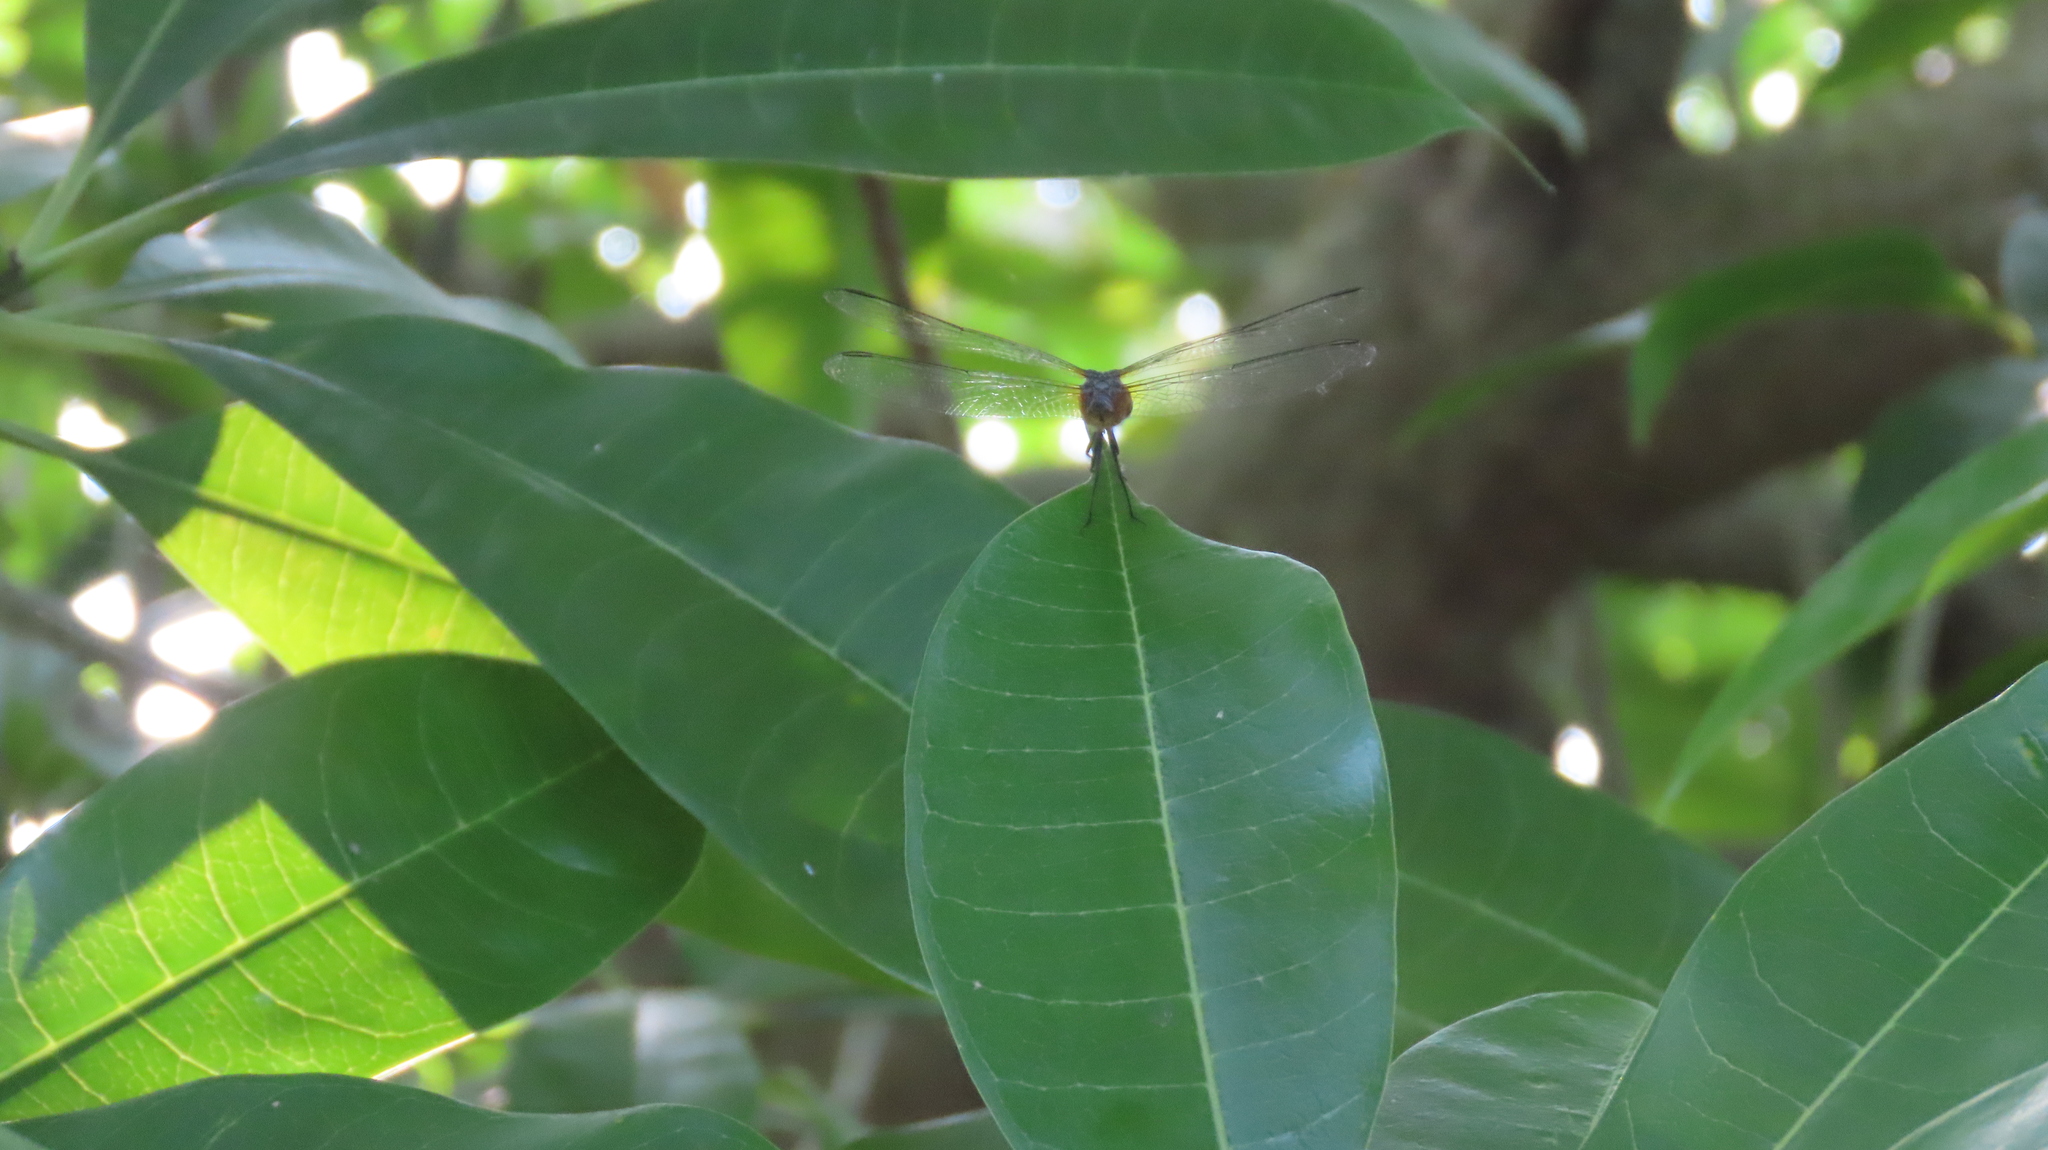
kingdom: Animalia
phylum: Arthropoda
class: Insecta
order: Odonata
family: Libellulidae
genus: Brachydiplax
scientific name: Brachydiplax chalybea
